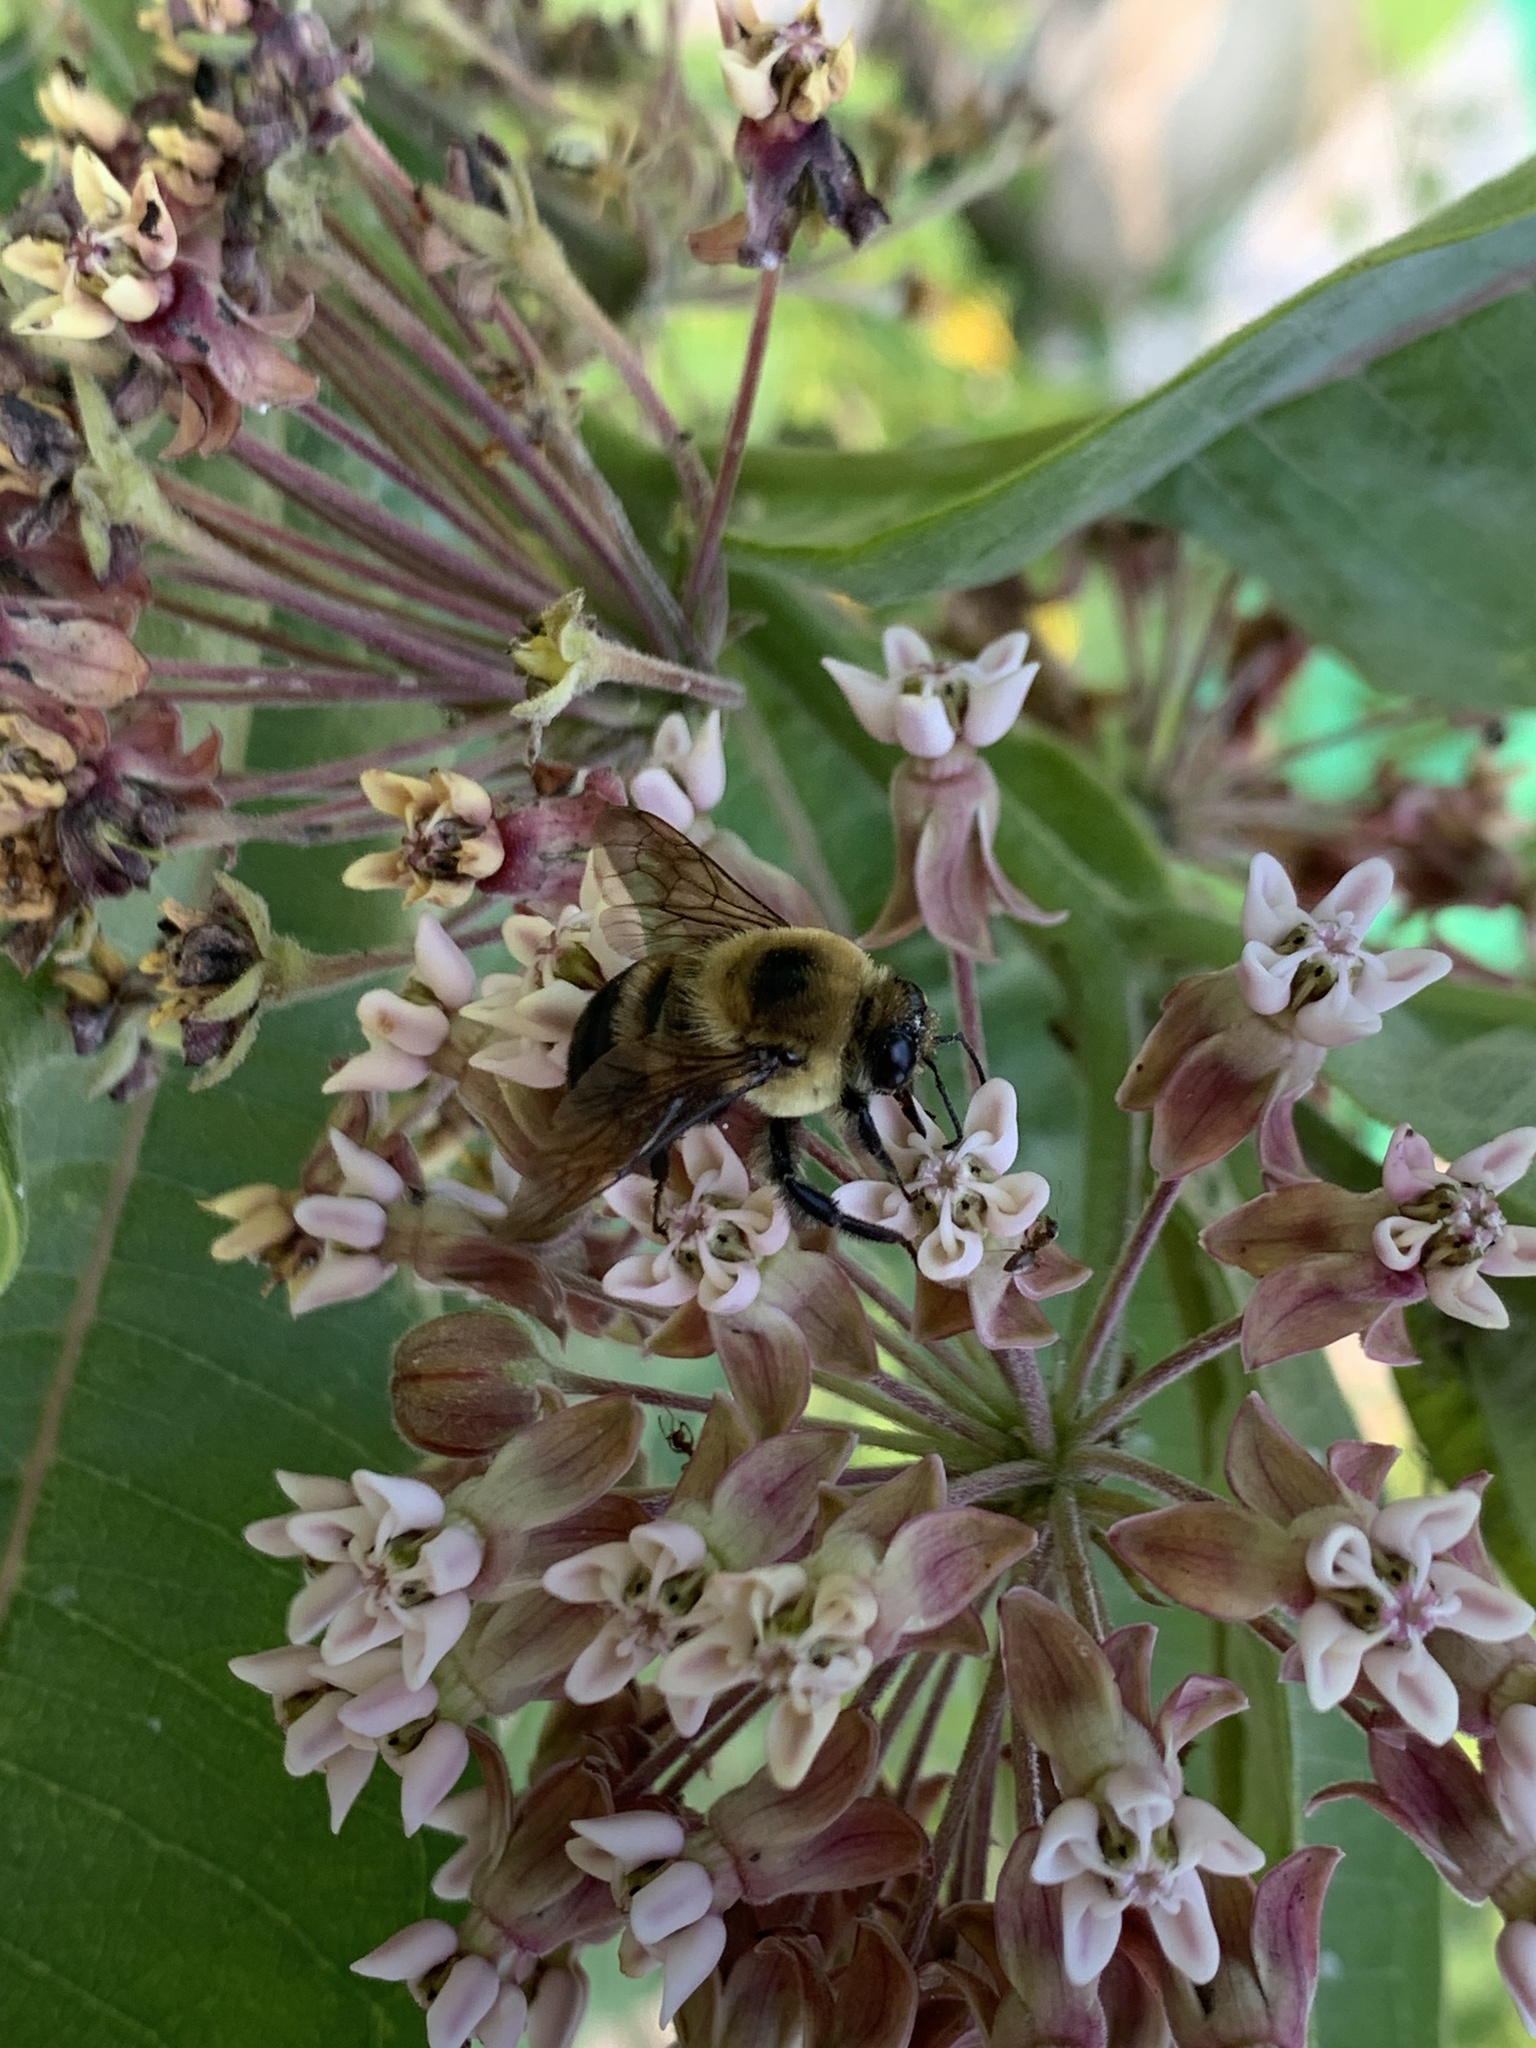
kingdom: Animalia
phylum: Arthropoda
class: Insecta
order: Hymenoptera
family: Apidae
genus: Bombus
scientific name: Bombus griseocollis
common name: Brown-belted bumble bee
